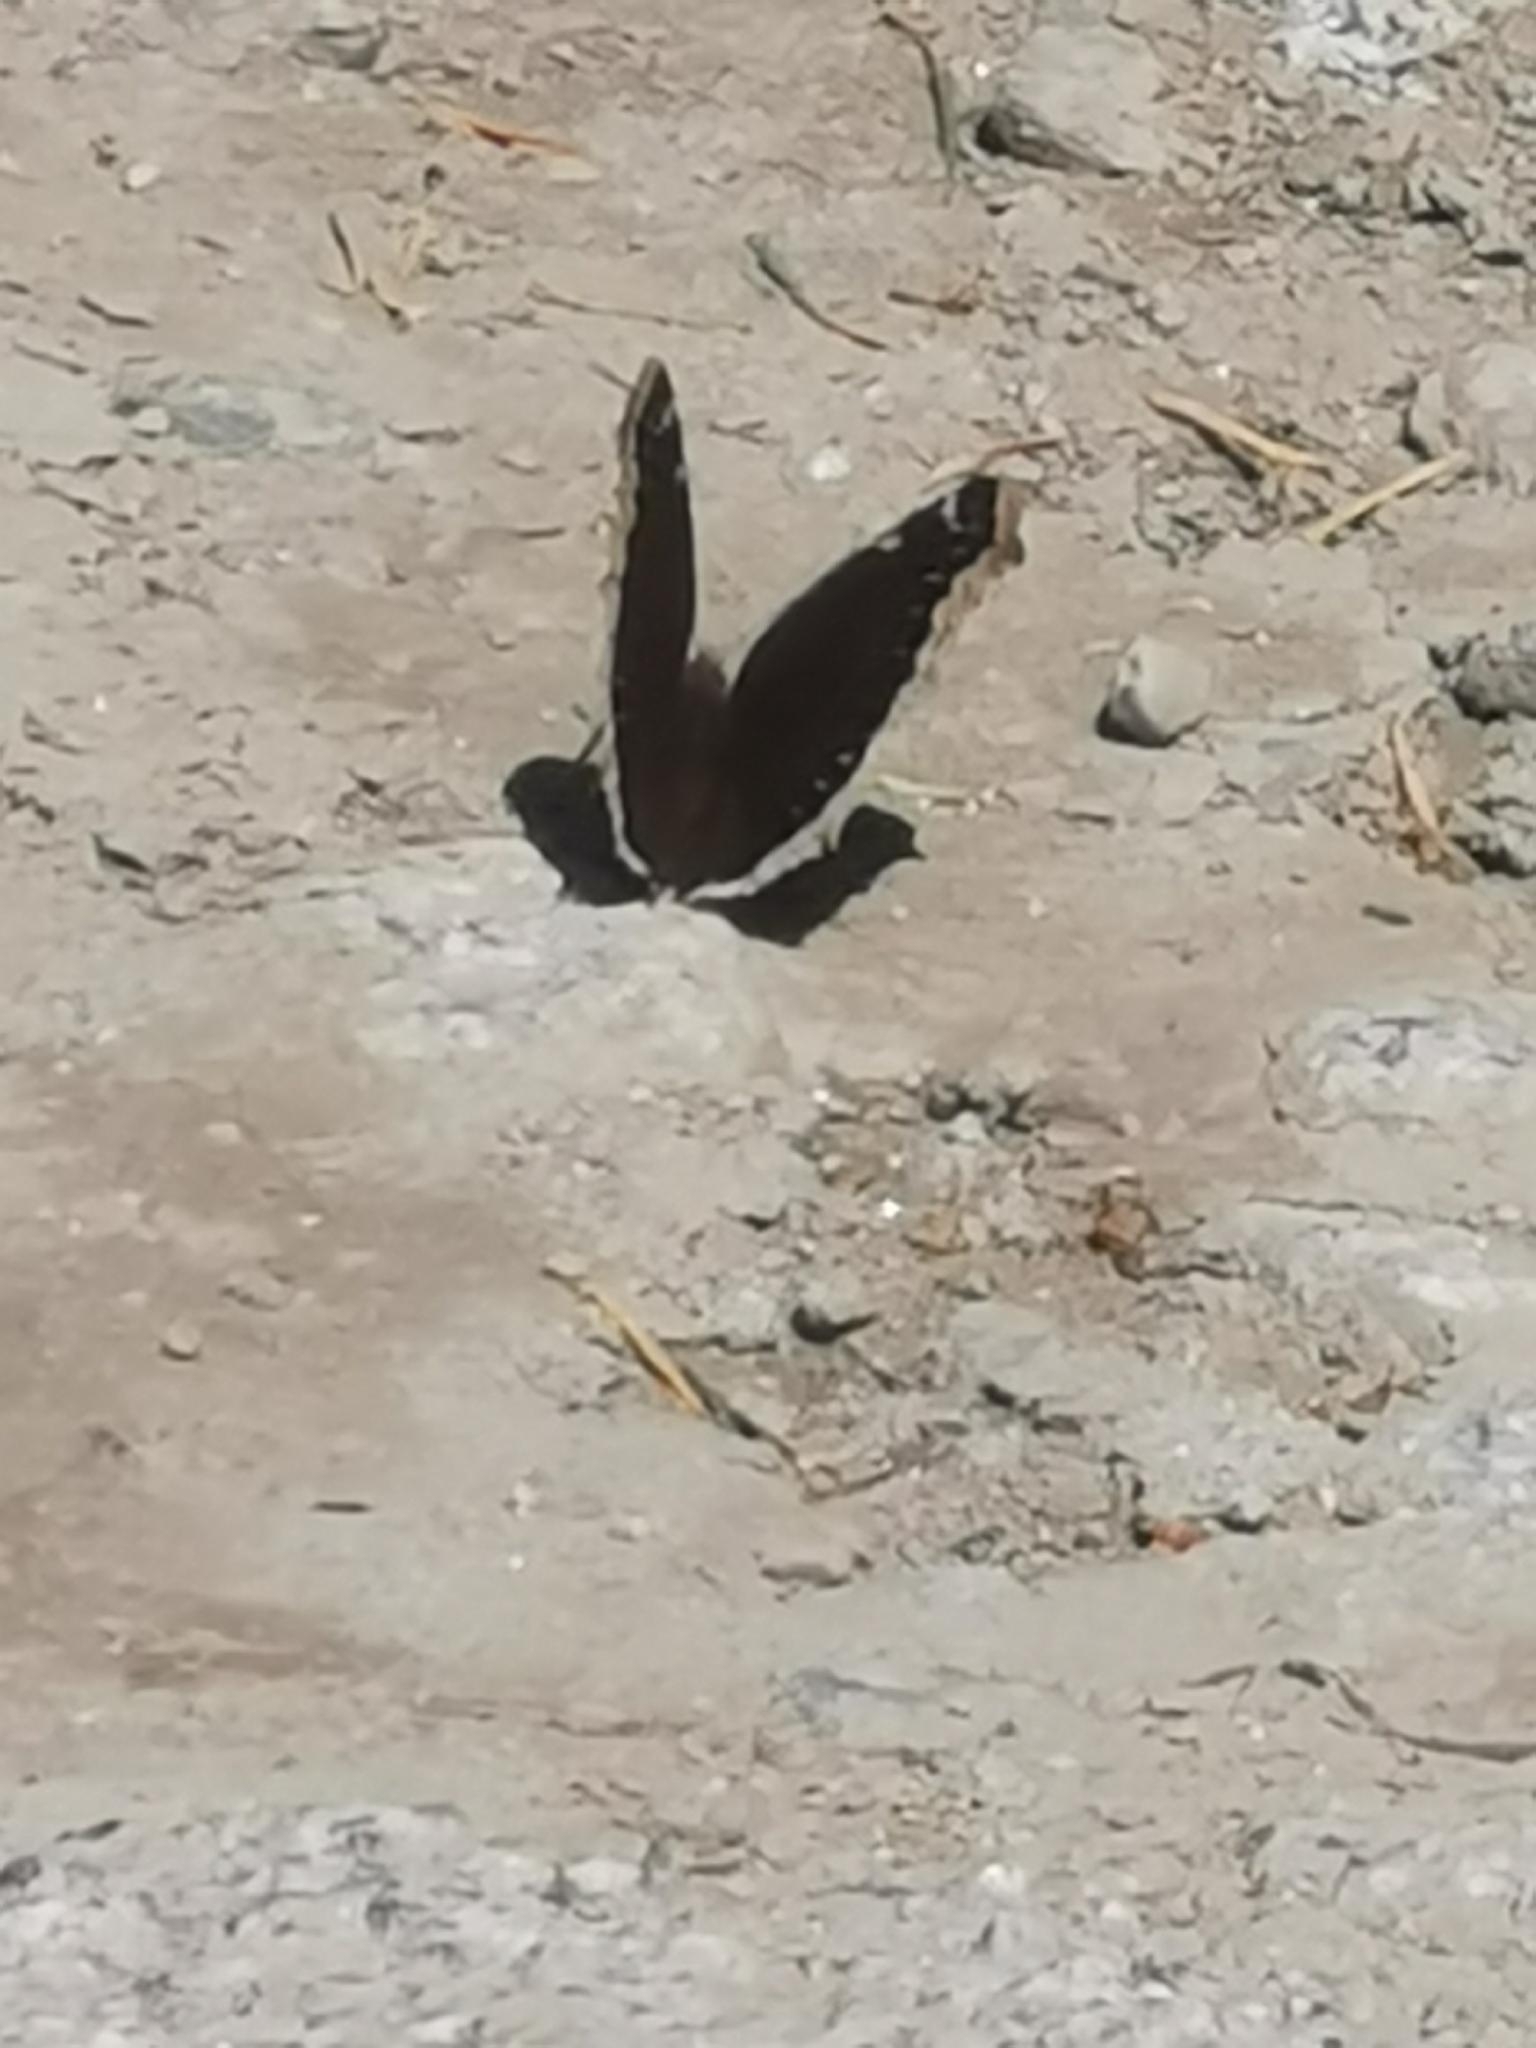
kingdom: Animalia
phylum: Arthropoda
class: Insecta
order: Lepidoptera
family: Nymphalidae
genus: Nymphalis
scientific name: Nymphalis antiopa
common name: Camberwell beauty
